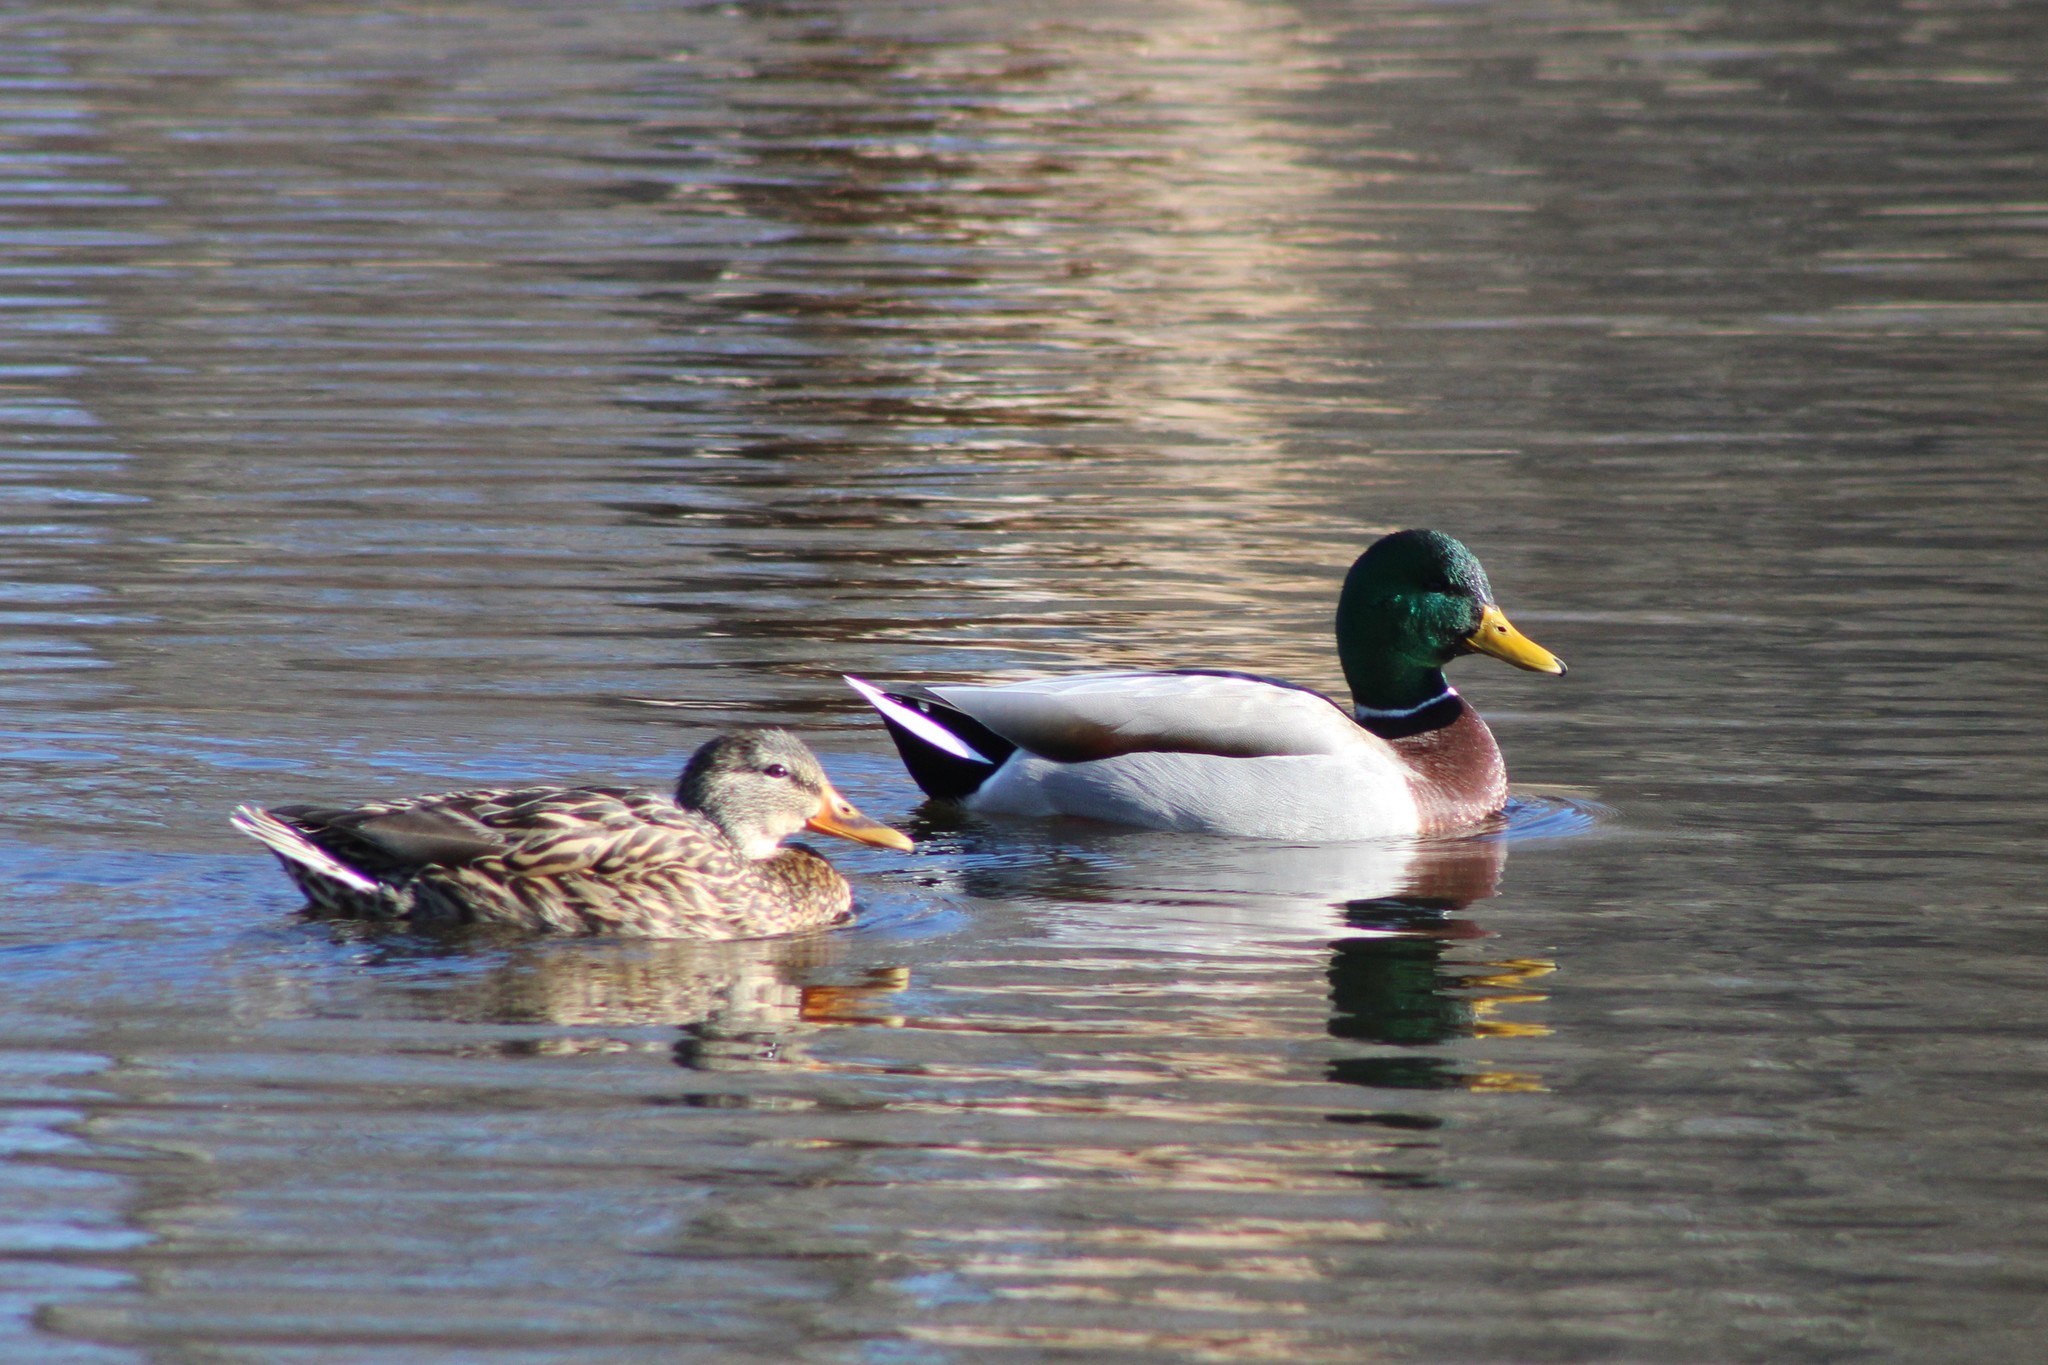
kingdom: Animalia
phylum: Chordata
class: Aves
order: Anseriformes
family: Anatidae
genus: Anas
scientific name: Anas platyrhynchos
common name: Mallard
